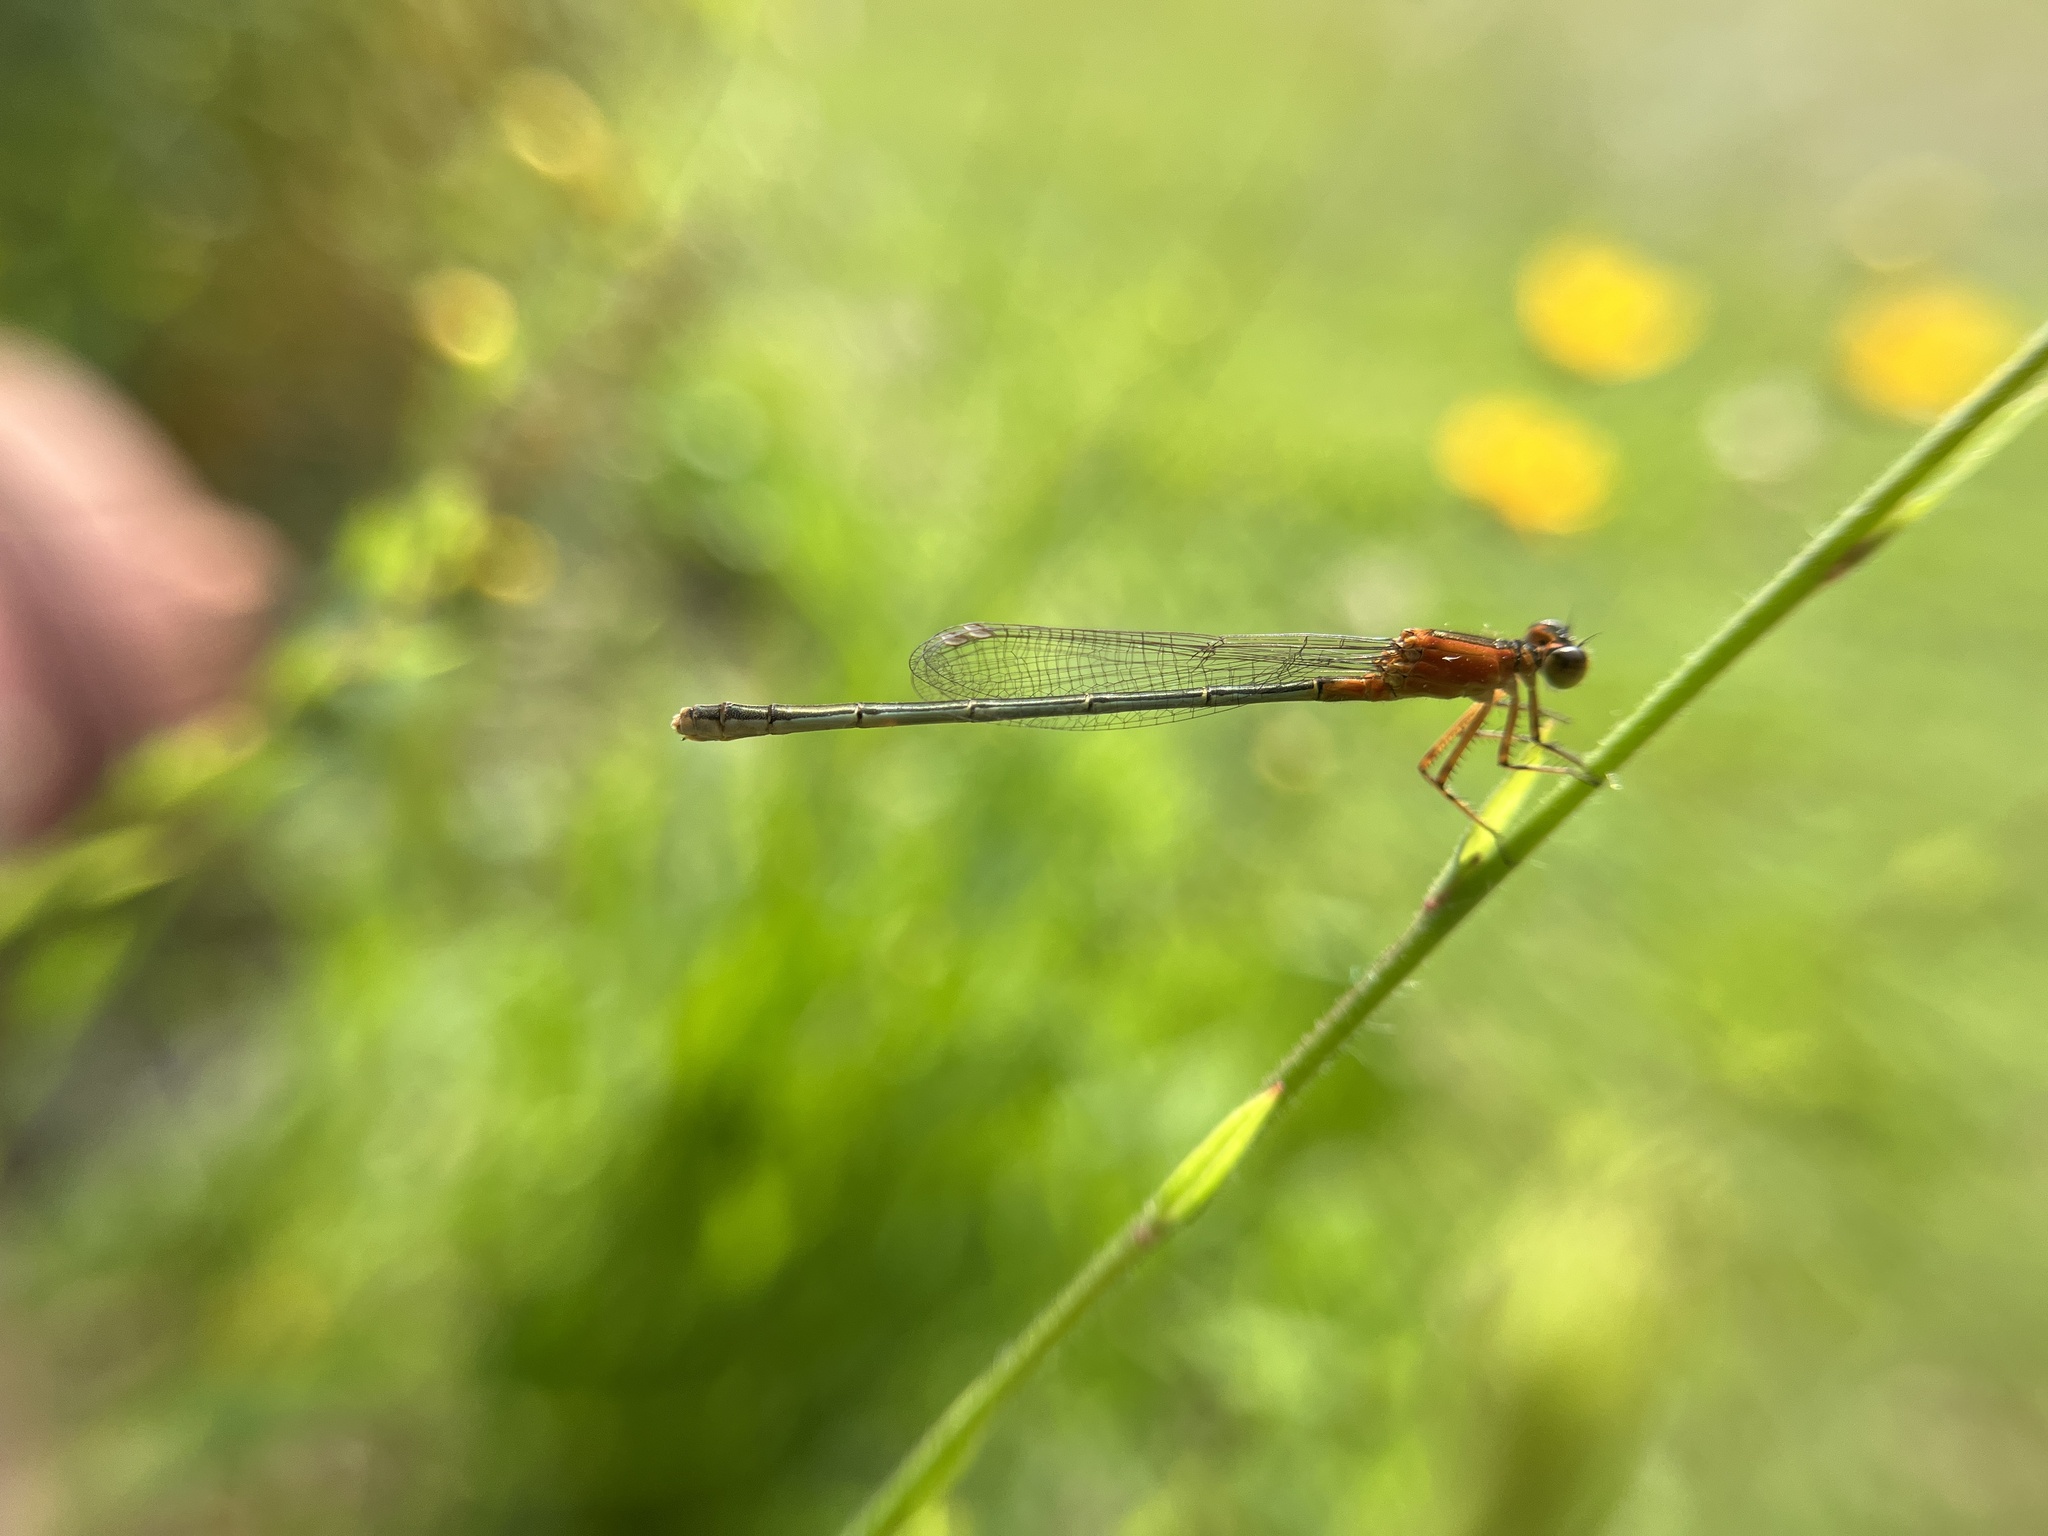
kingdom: Animalia
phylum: Arthropoda
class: Insecta
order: Odonata
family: Coenagrionidae
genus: Ischnura
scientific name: Ischnura ramburii
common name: Rambur's forktail
